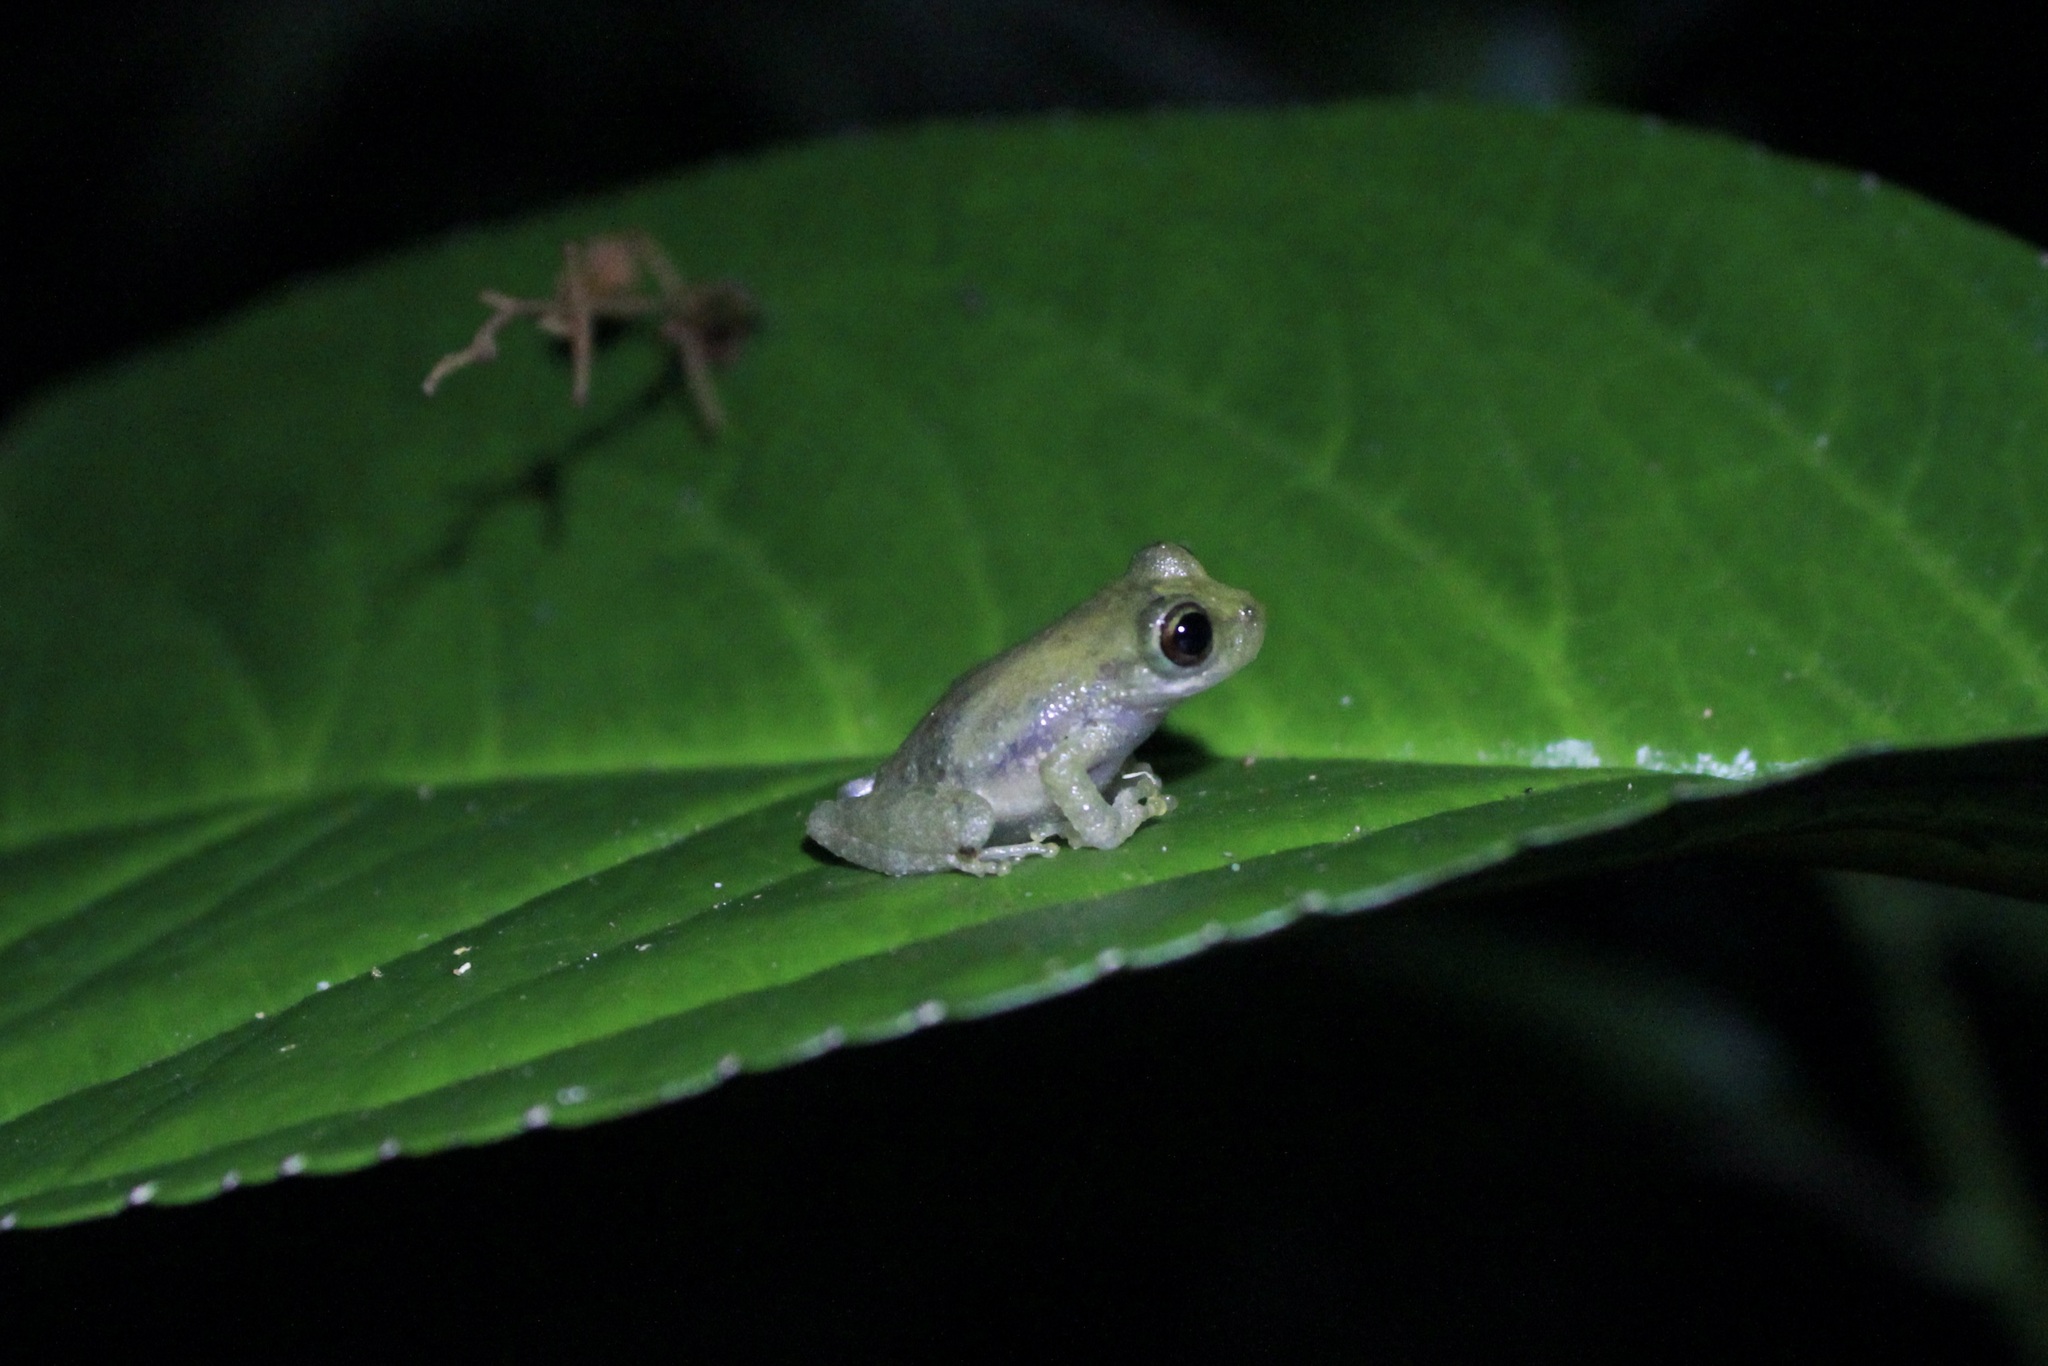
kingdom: Animalia
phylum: Chordata
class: Amphibia
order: Anura
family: Hemiphractidae
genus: Flectonotus
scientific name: Flectonotus fitzgeraldi
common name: Marsupial frog
